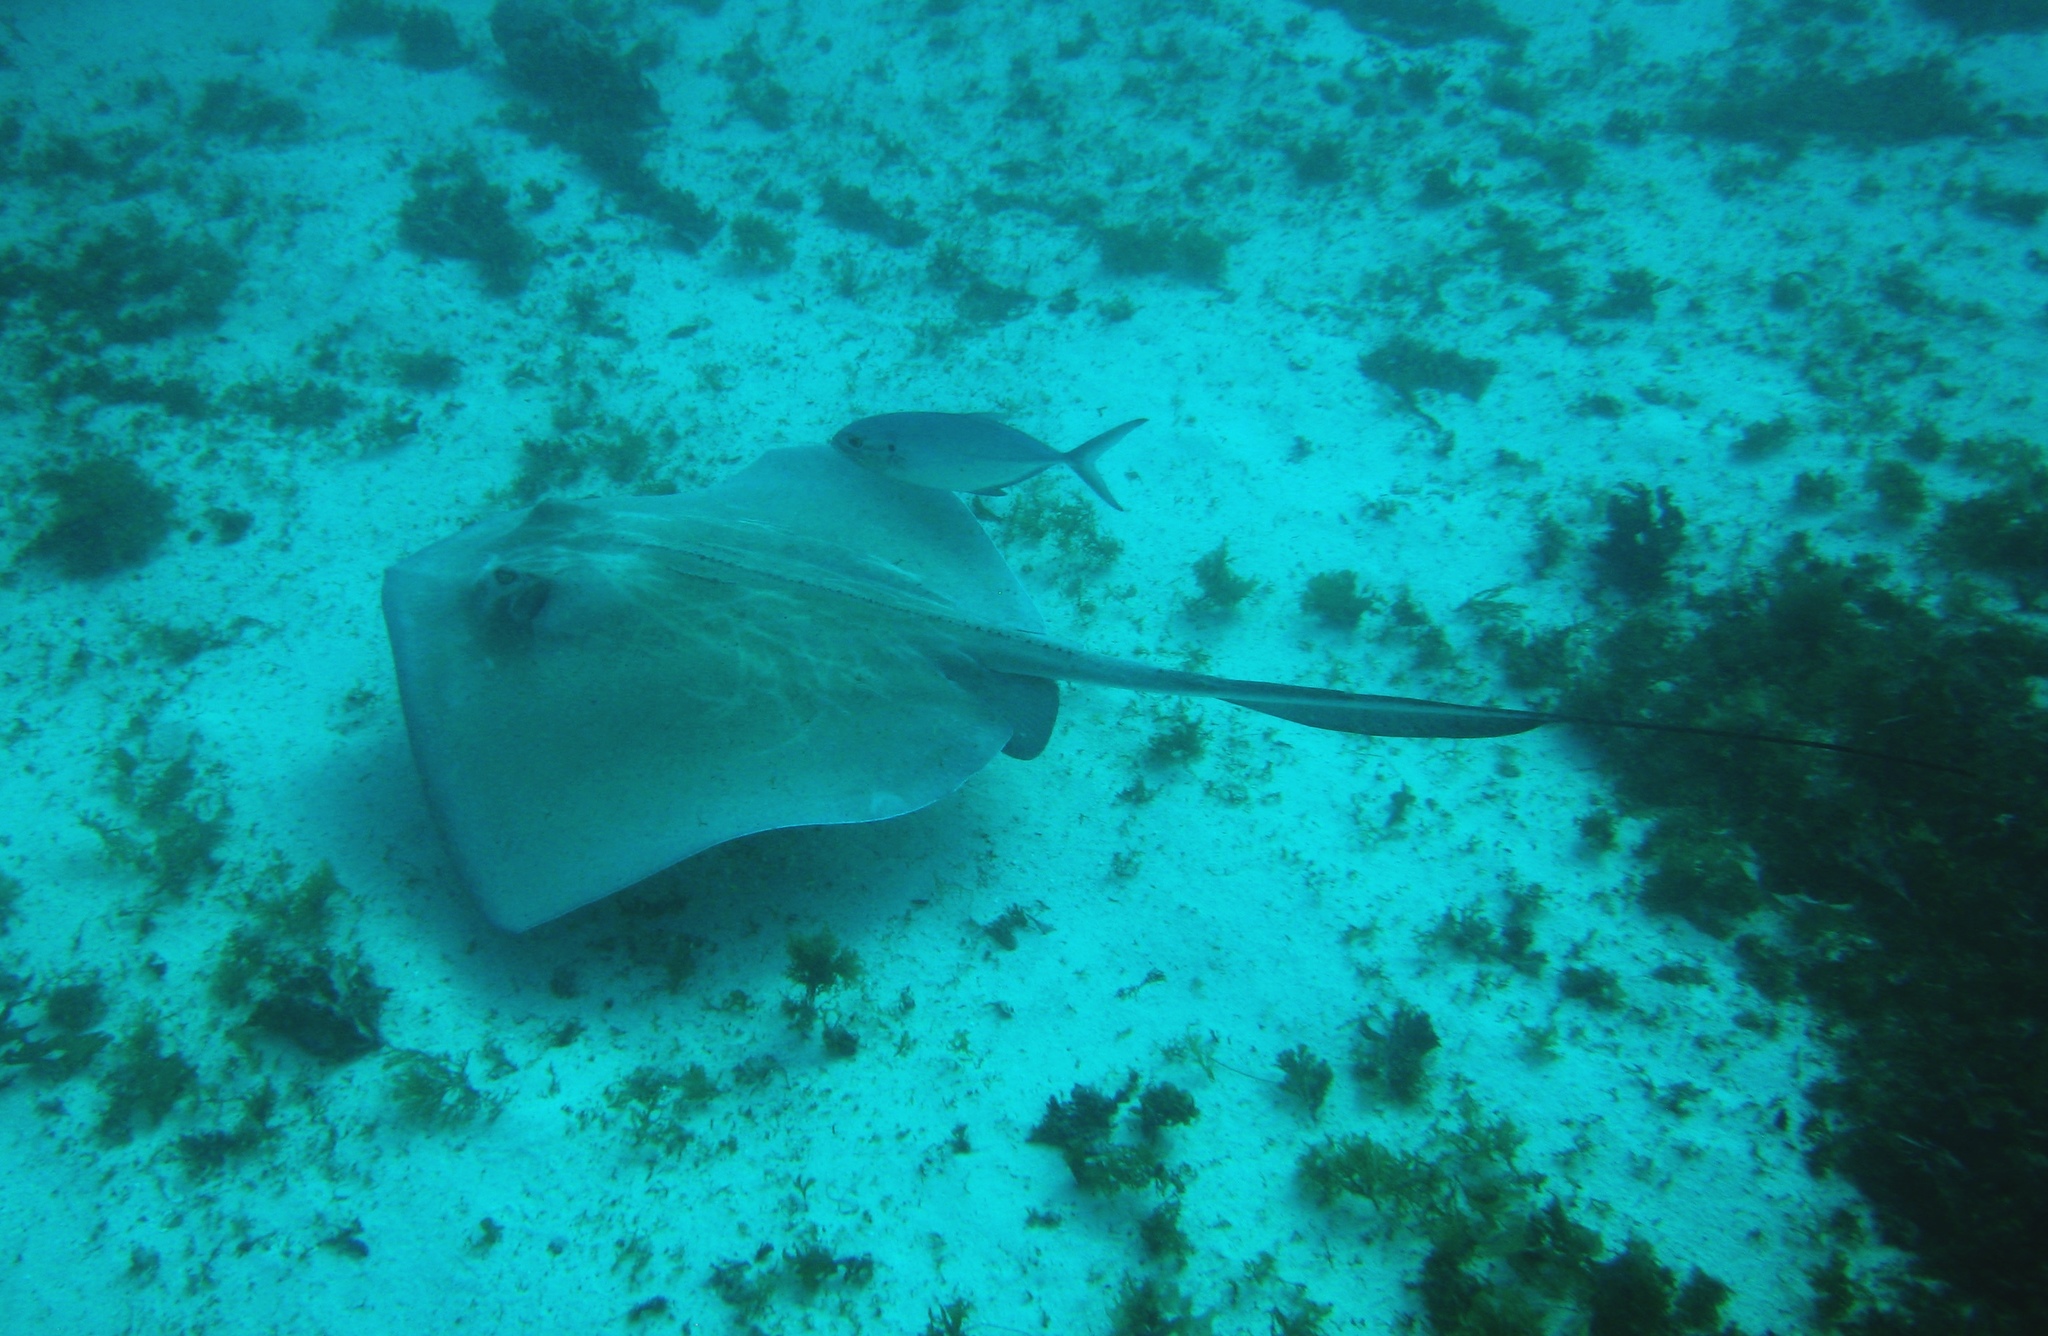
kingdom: Animalia
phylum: Chordata
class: Elasmobranchii
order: Myliobatiformes
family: Dasyatidae
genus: Hypanus
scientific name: Hypanus americanus
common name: Southern stingray
